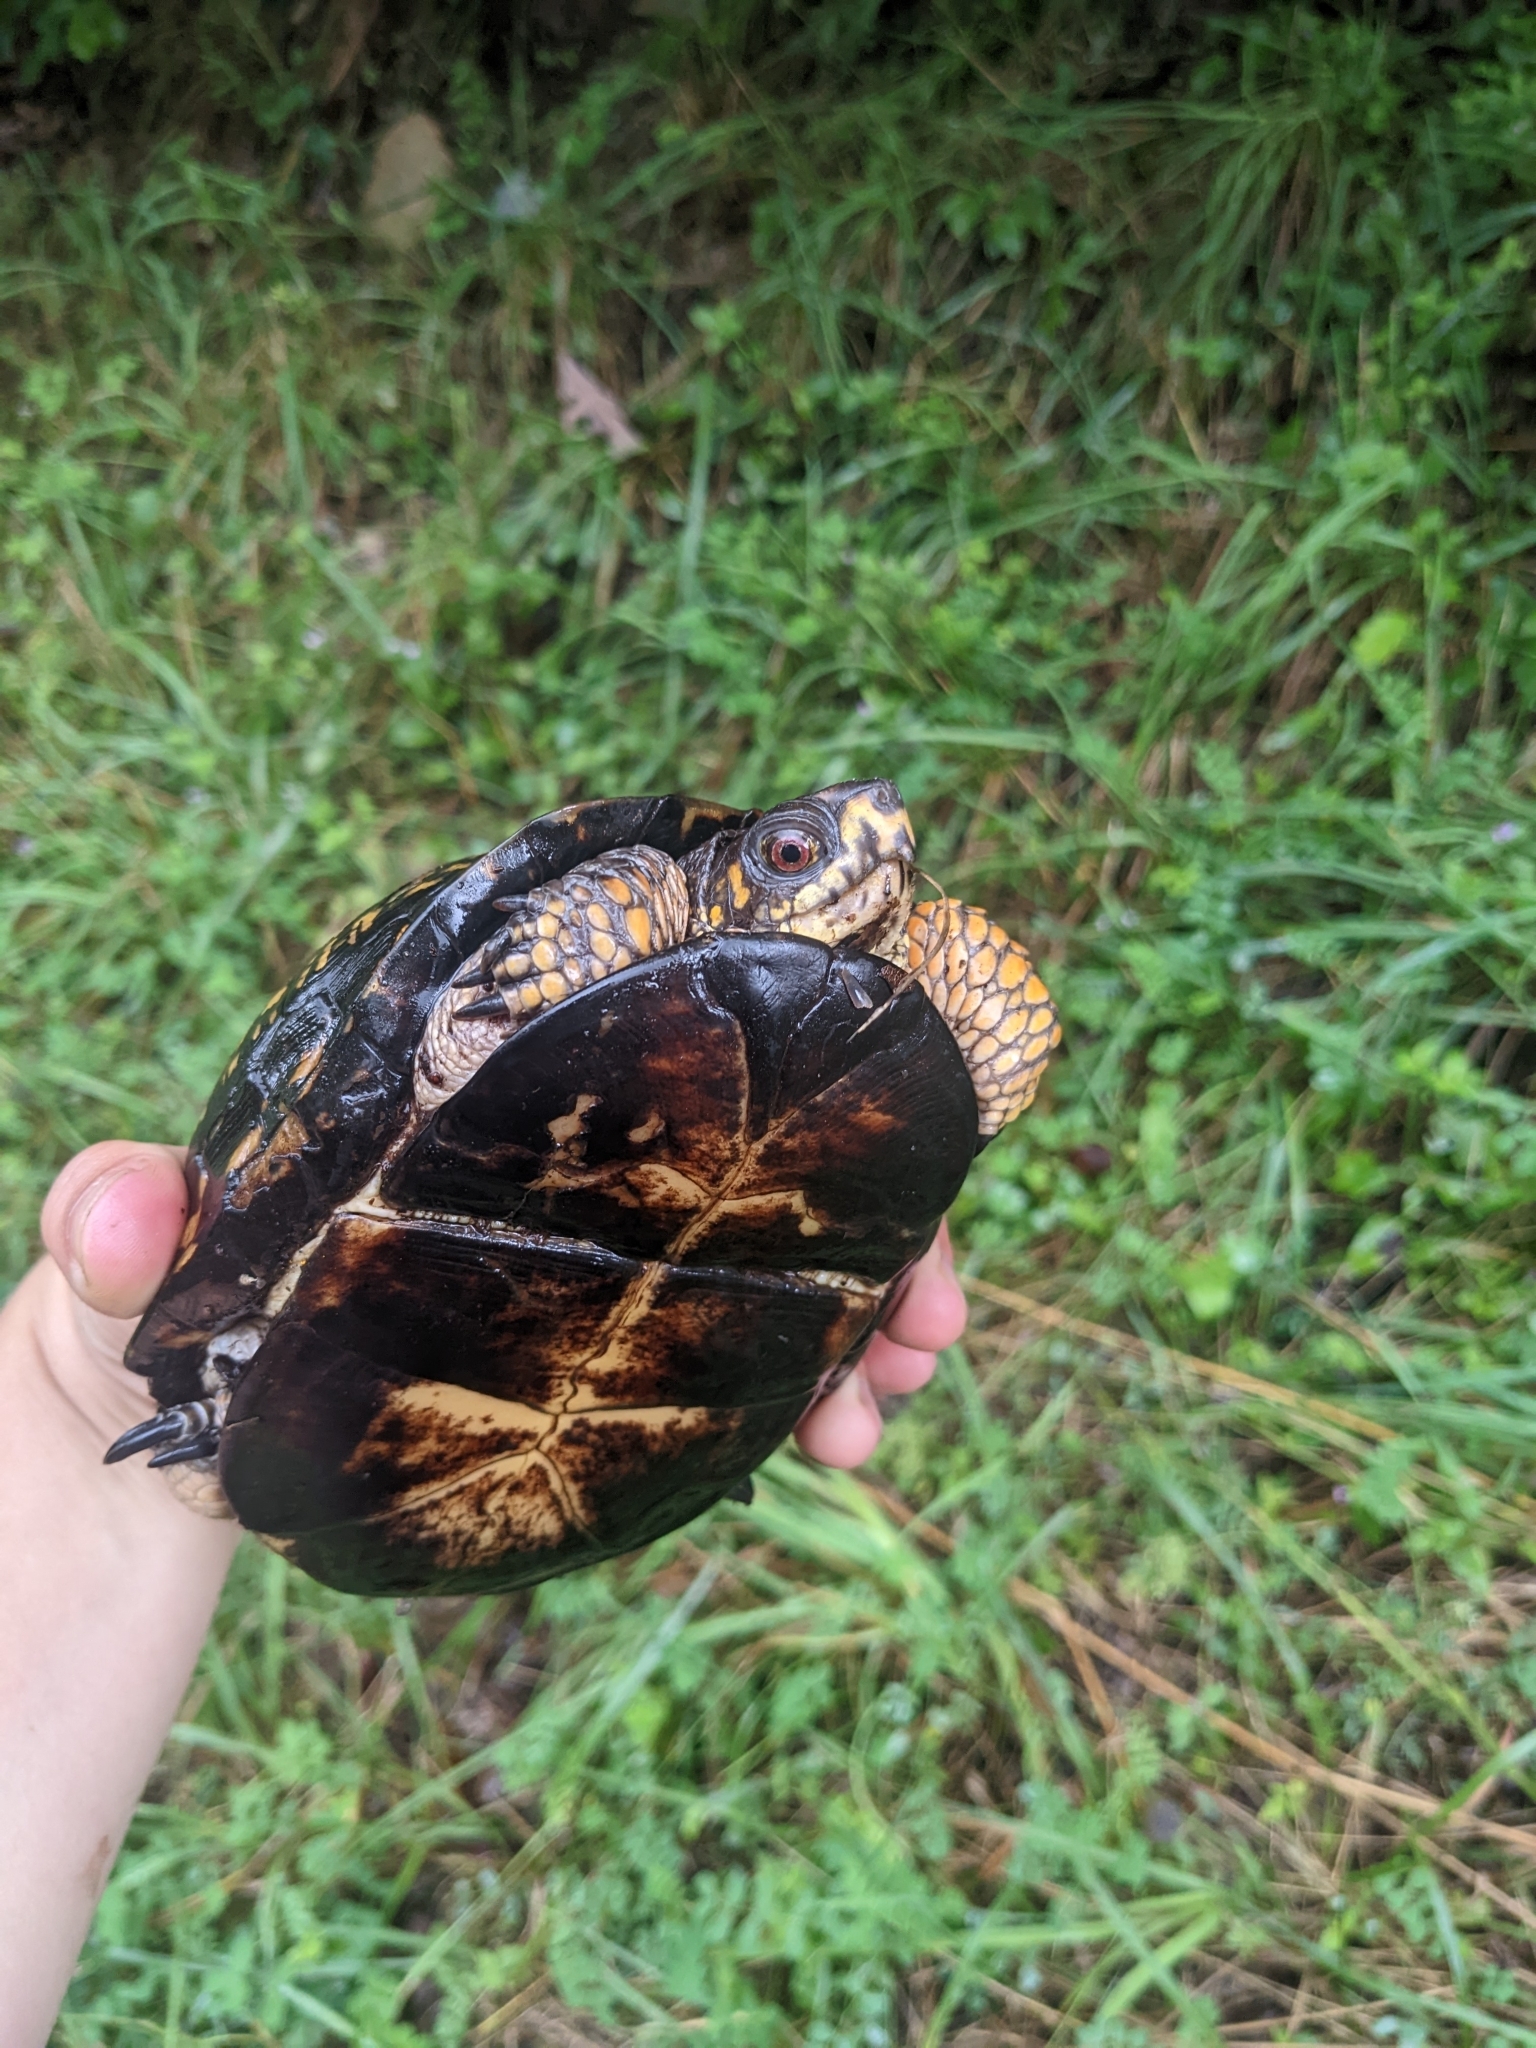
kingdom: Animalia
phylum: Chordata
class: Testudines
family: Emydidae
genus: Terrapene
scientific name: Terrapene carolina
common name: Common box turtle
